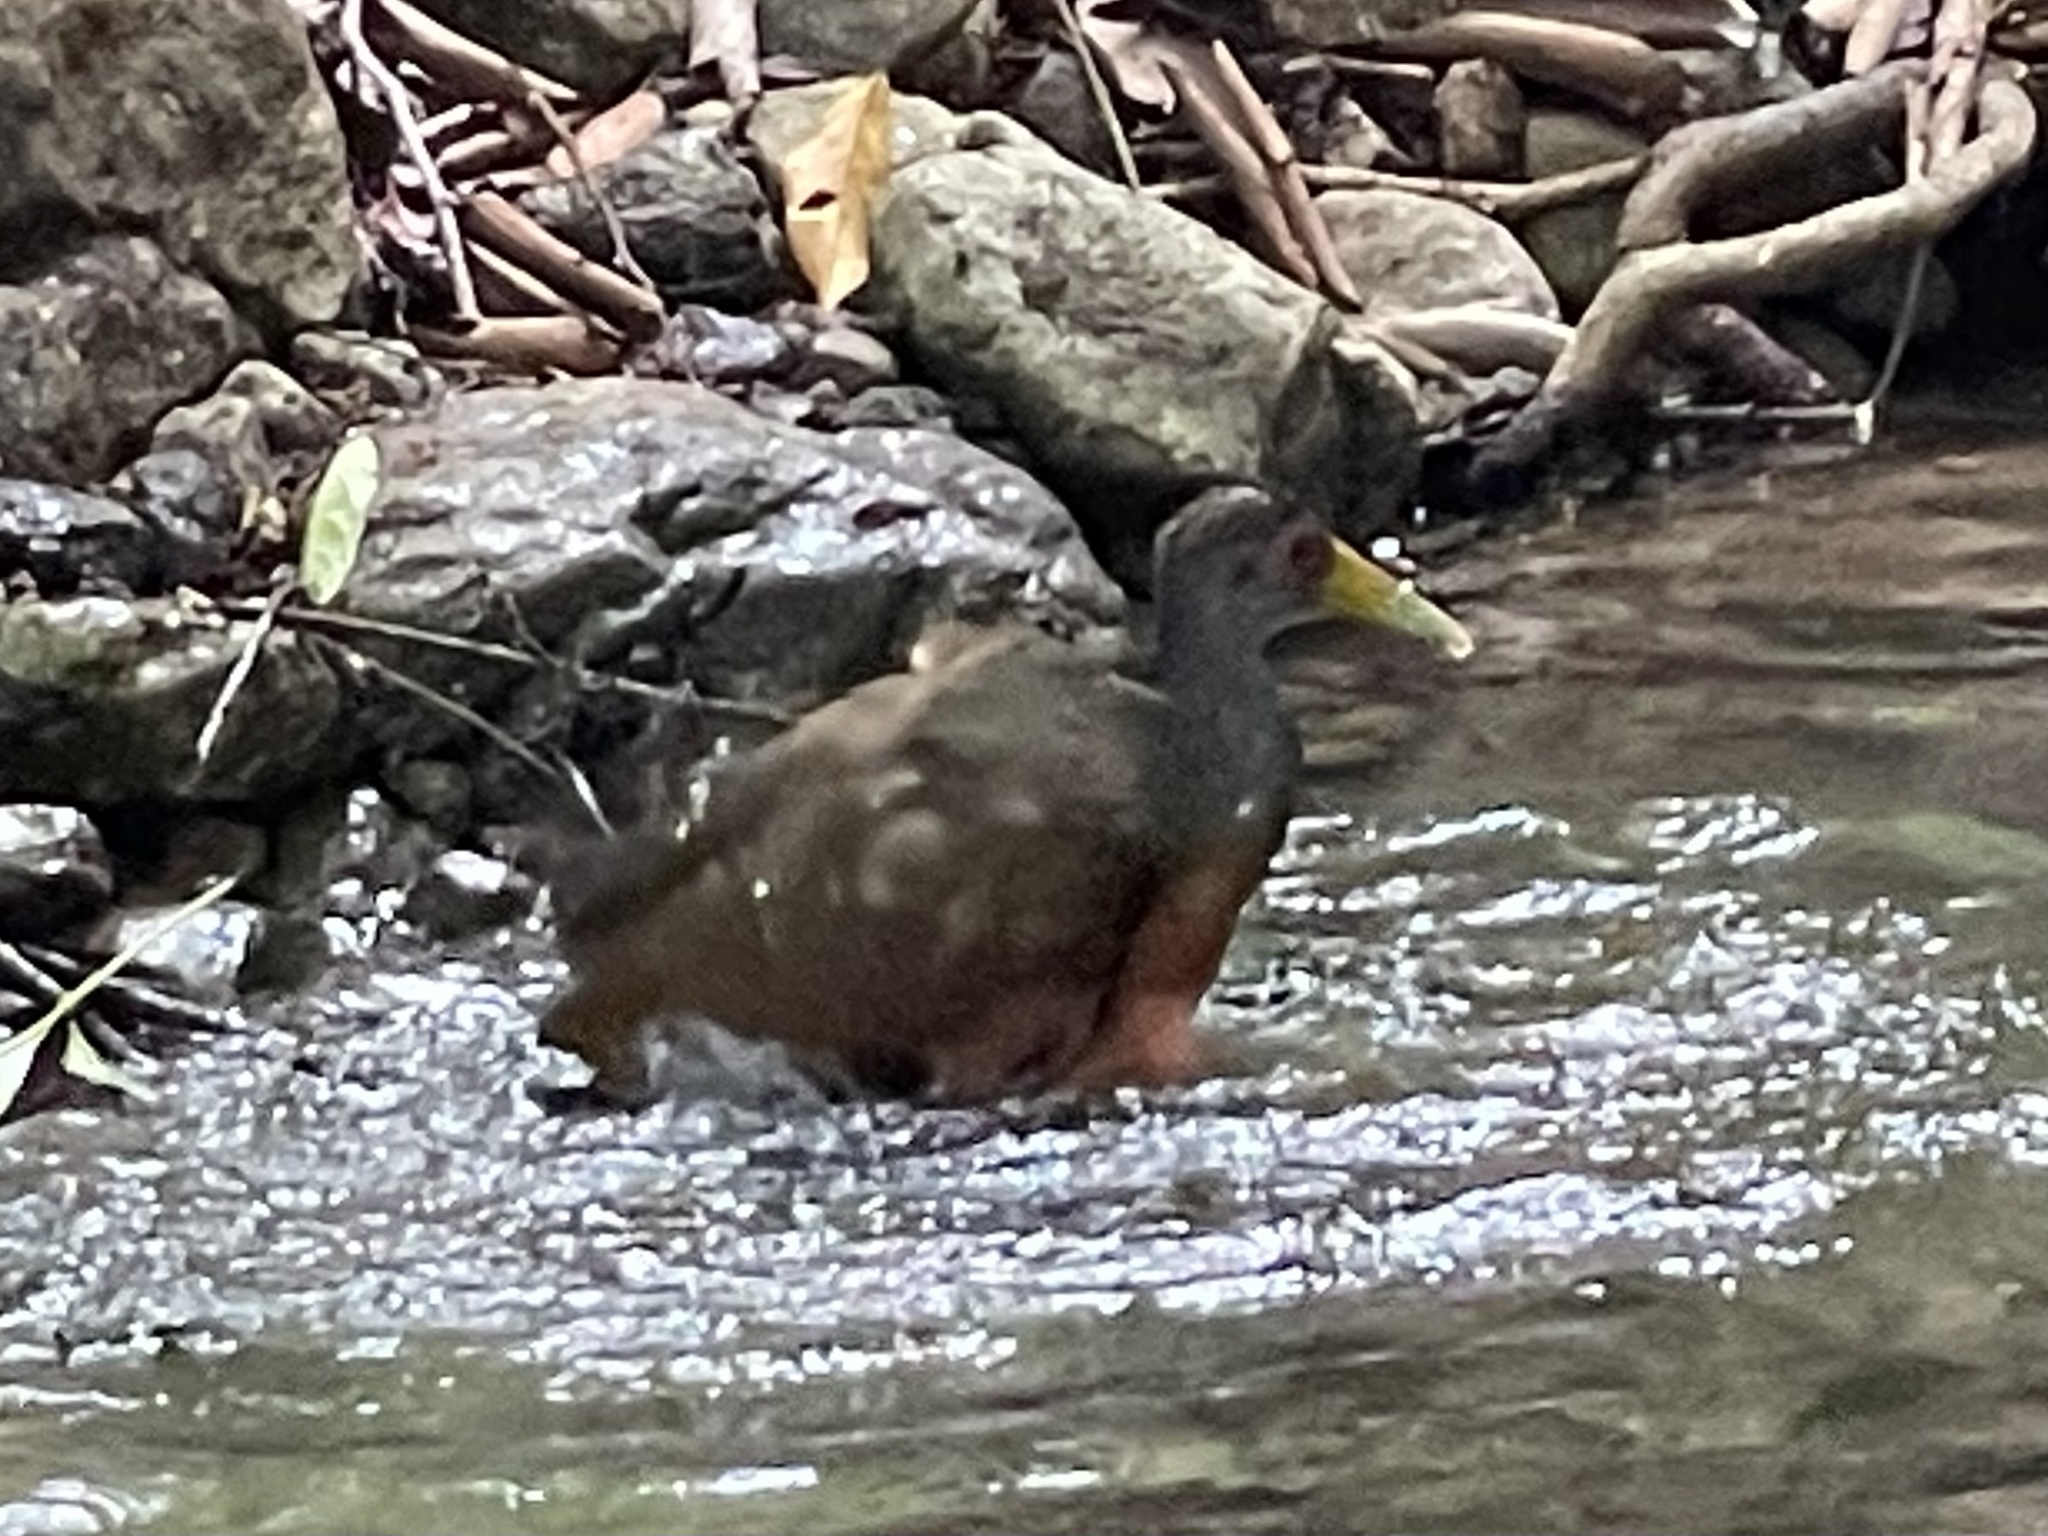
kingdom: Animalia
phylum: Chordata
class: Aves
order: Gruiformes
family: Rallidae
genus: Aramides
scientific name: Aramides cajanea
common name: Gray-necked wood-rail
